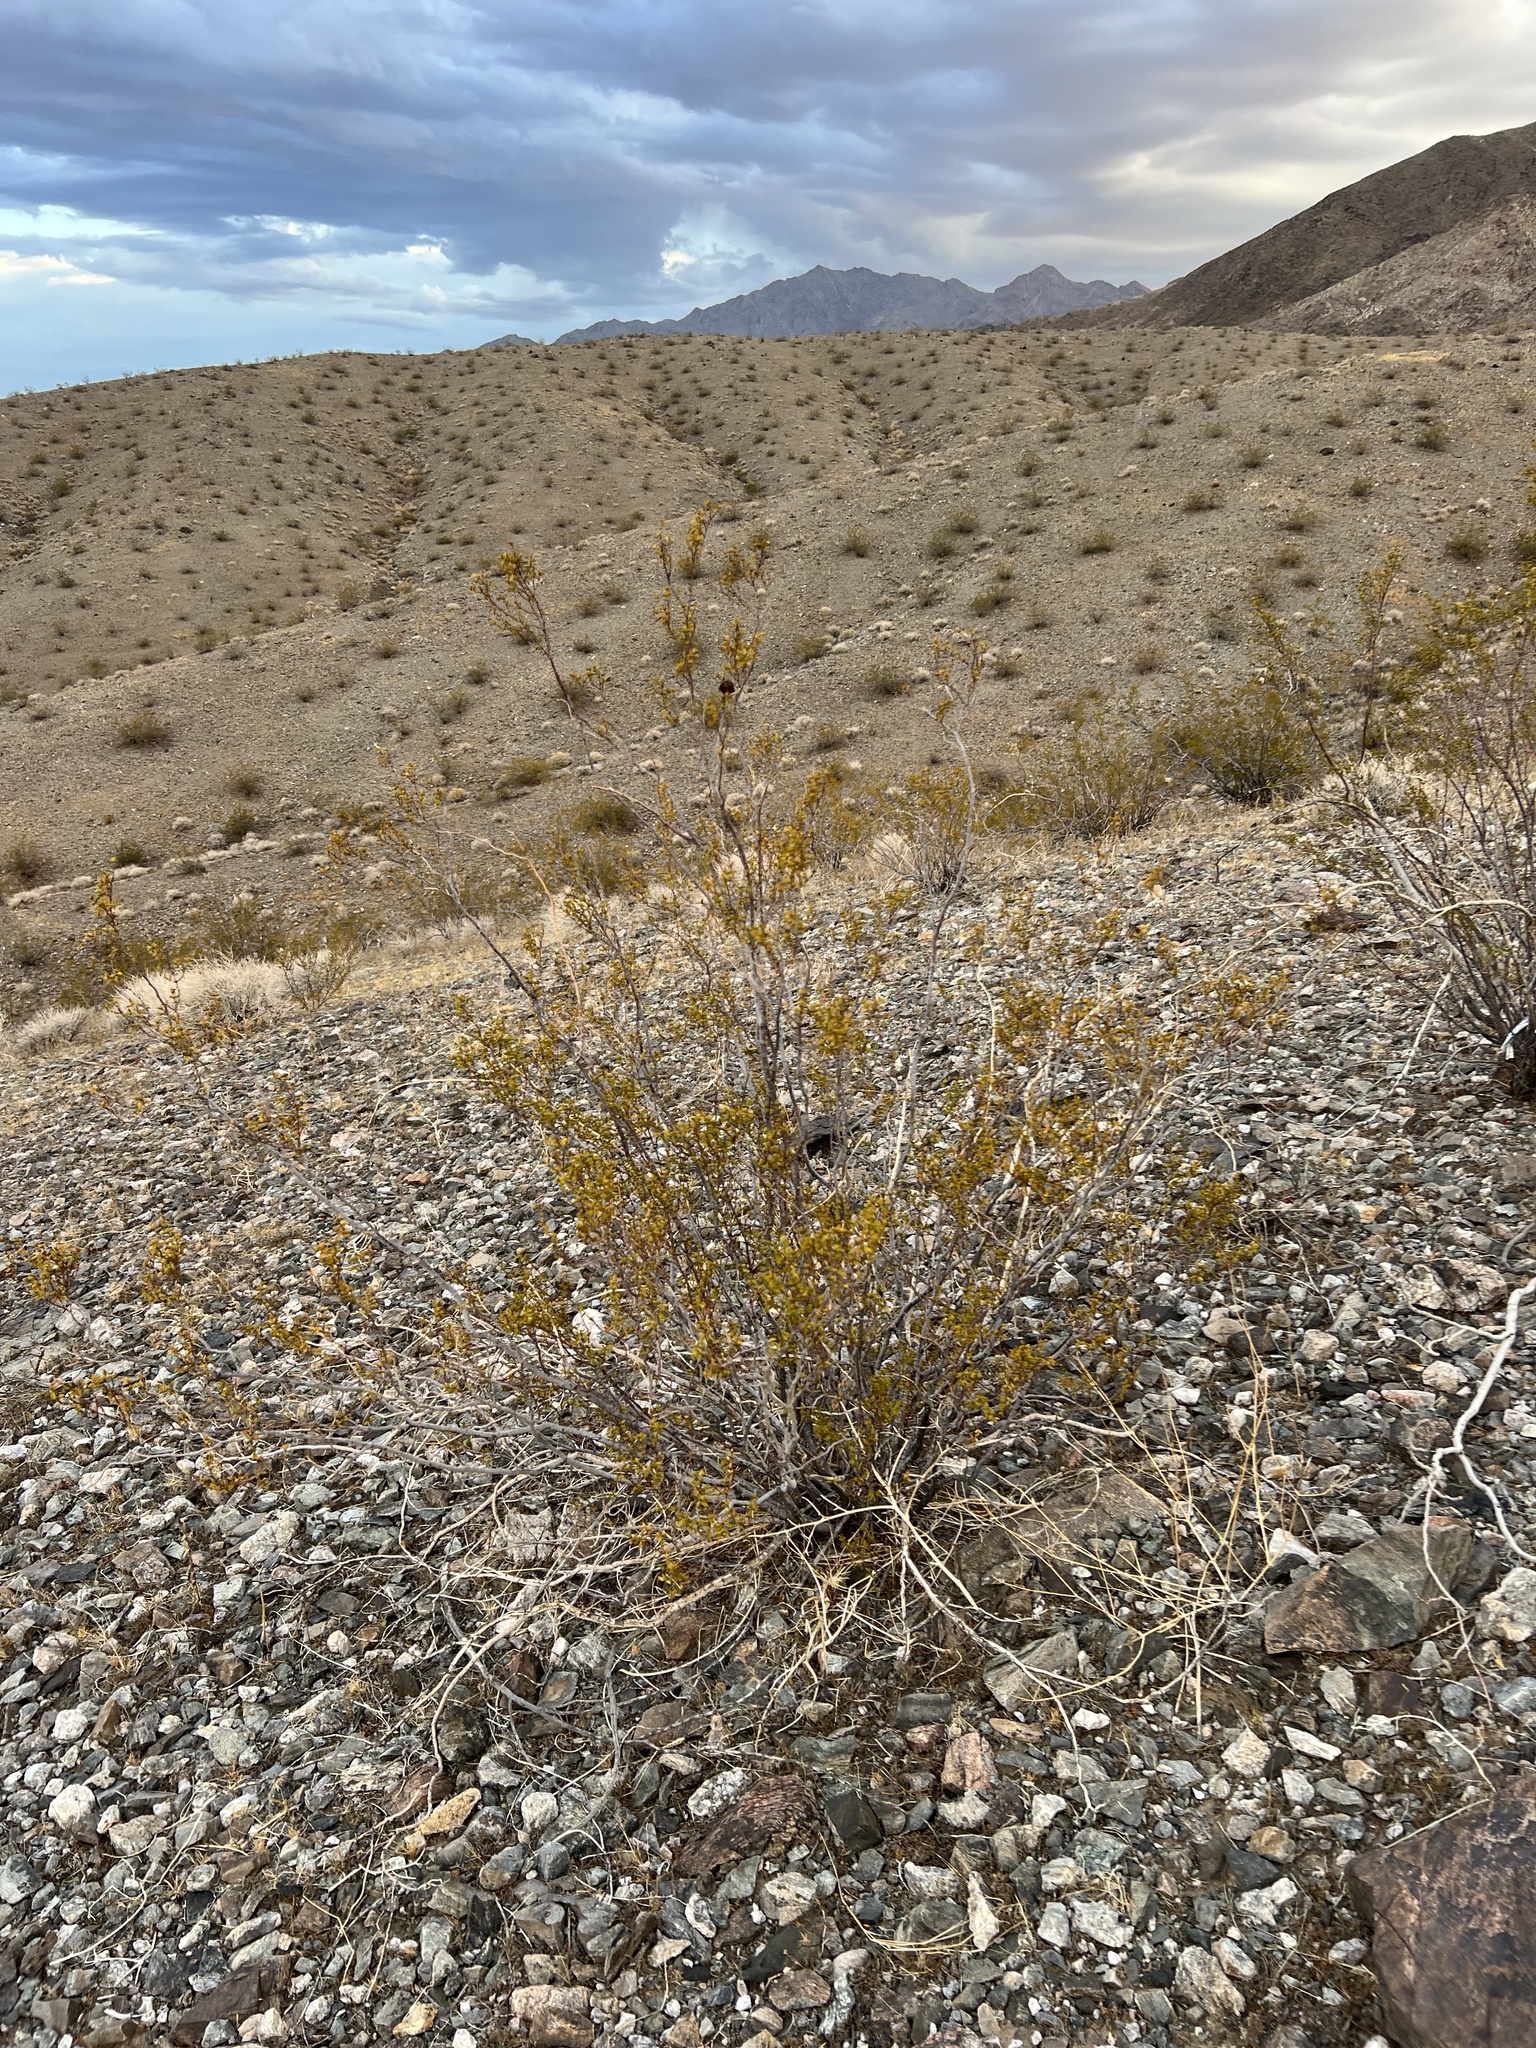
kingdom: Plantae
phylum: Tracheophyta
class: Magnoliopsida
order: Zygophyllales
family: Zygophyllaceae
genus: Larrea
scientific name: Larrea tridentata
